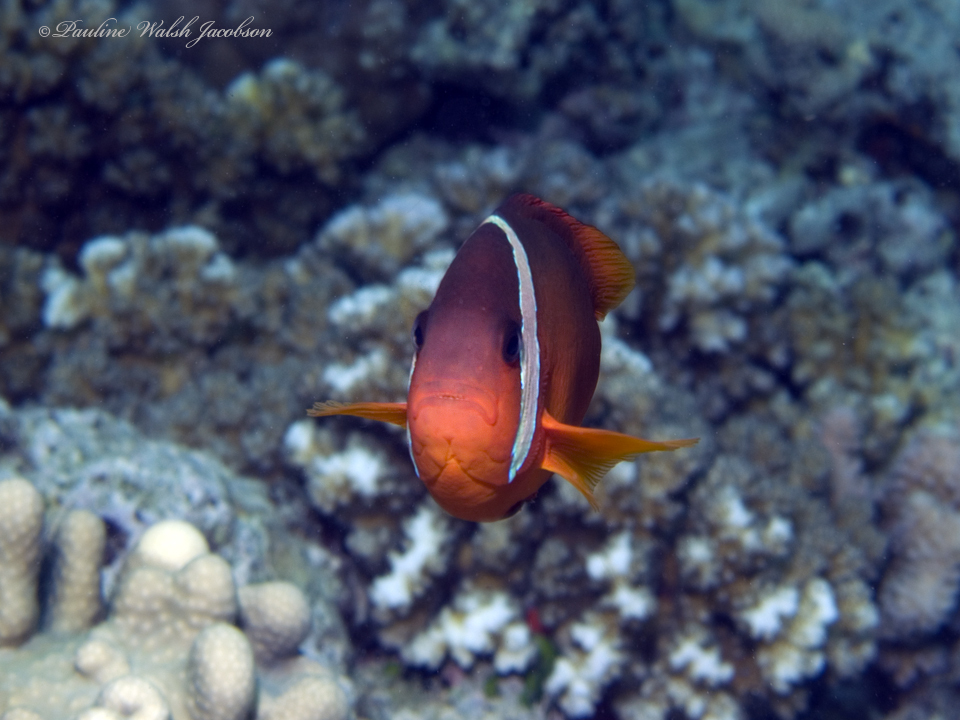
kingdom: Animalia
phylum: Chordata
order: Perciformes
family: Pomacentridae
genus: Amphiprion
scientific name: Amphiprion barberi
